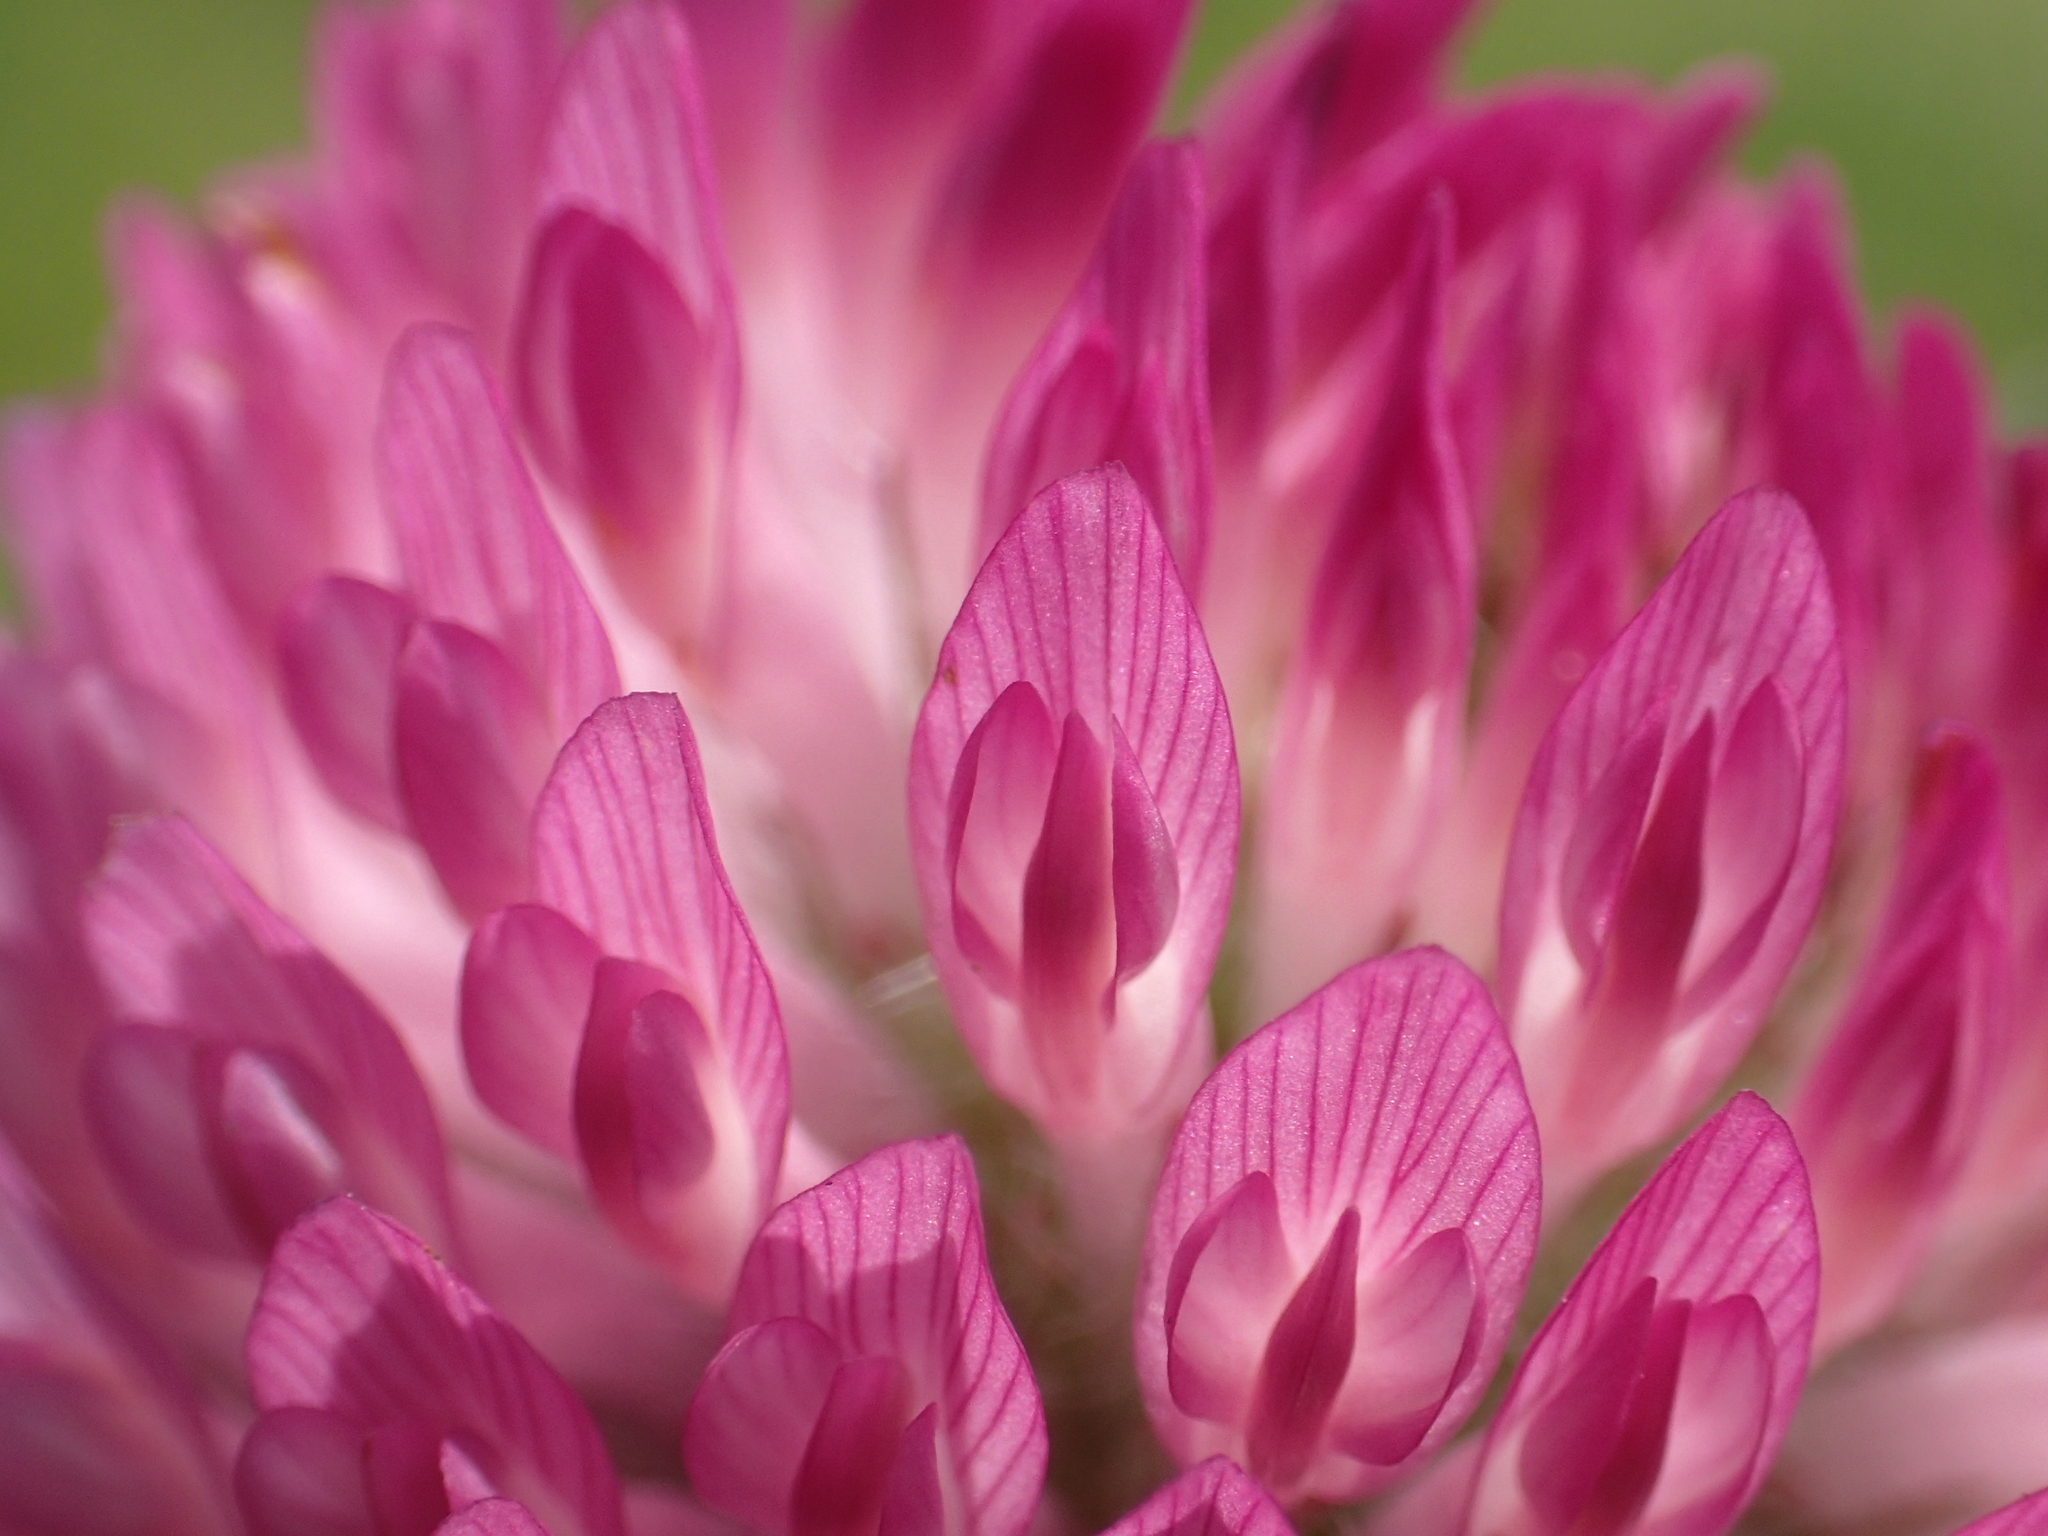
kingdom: Plantae
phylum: Tracheophyta
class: Magnoliopsida
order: Fabales
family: Fabaceae
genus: Trifolium
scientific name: Trifolium pratense
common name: Red clover
